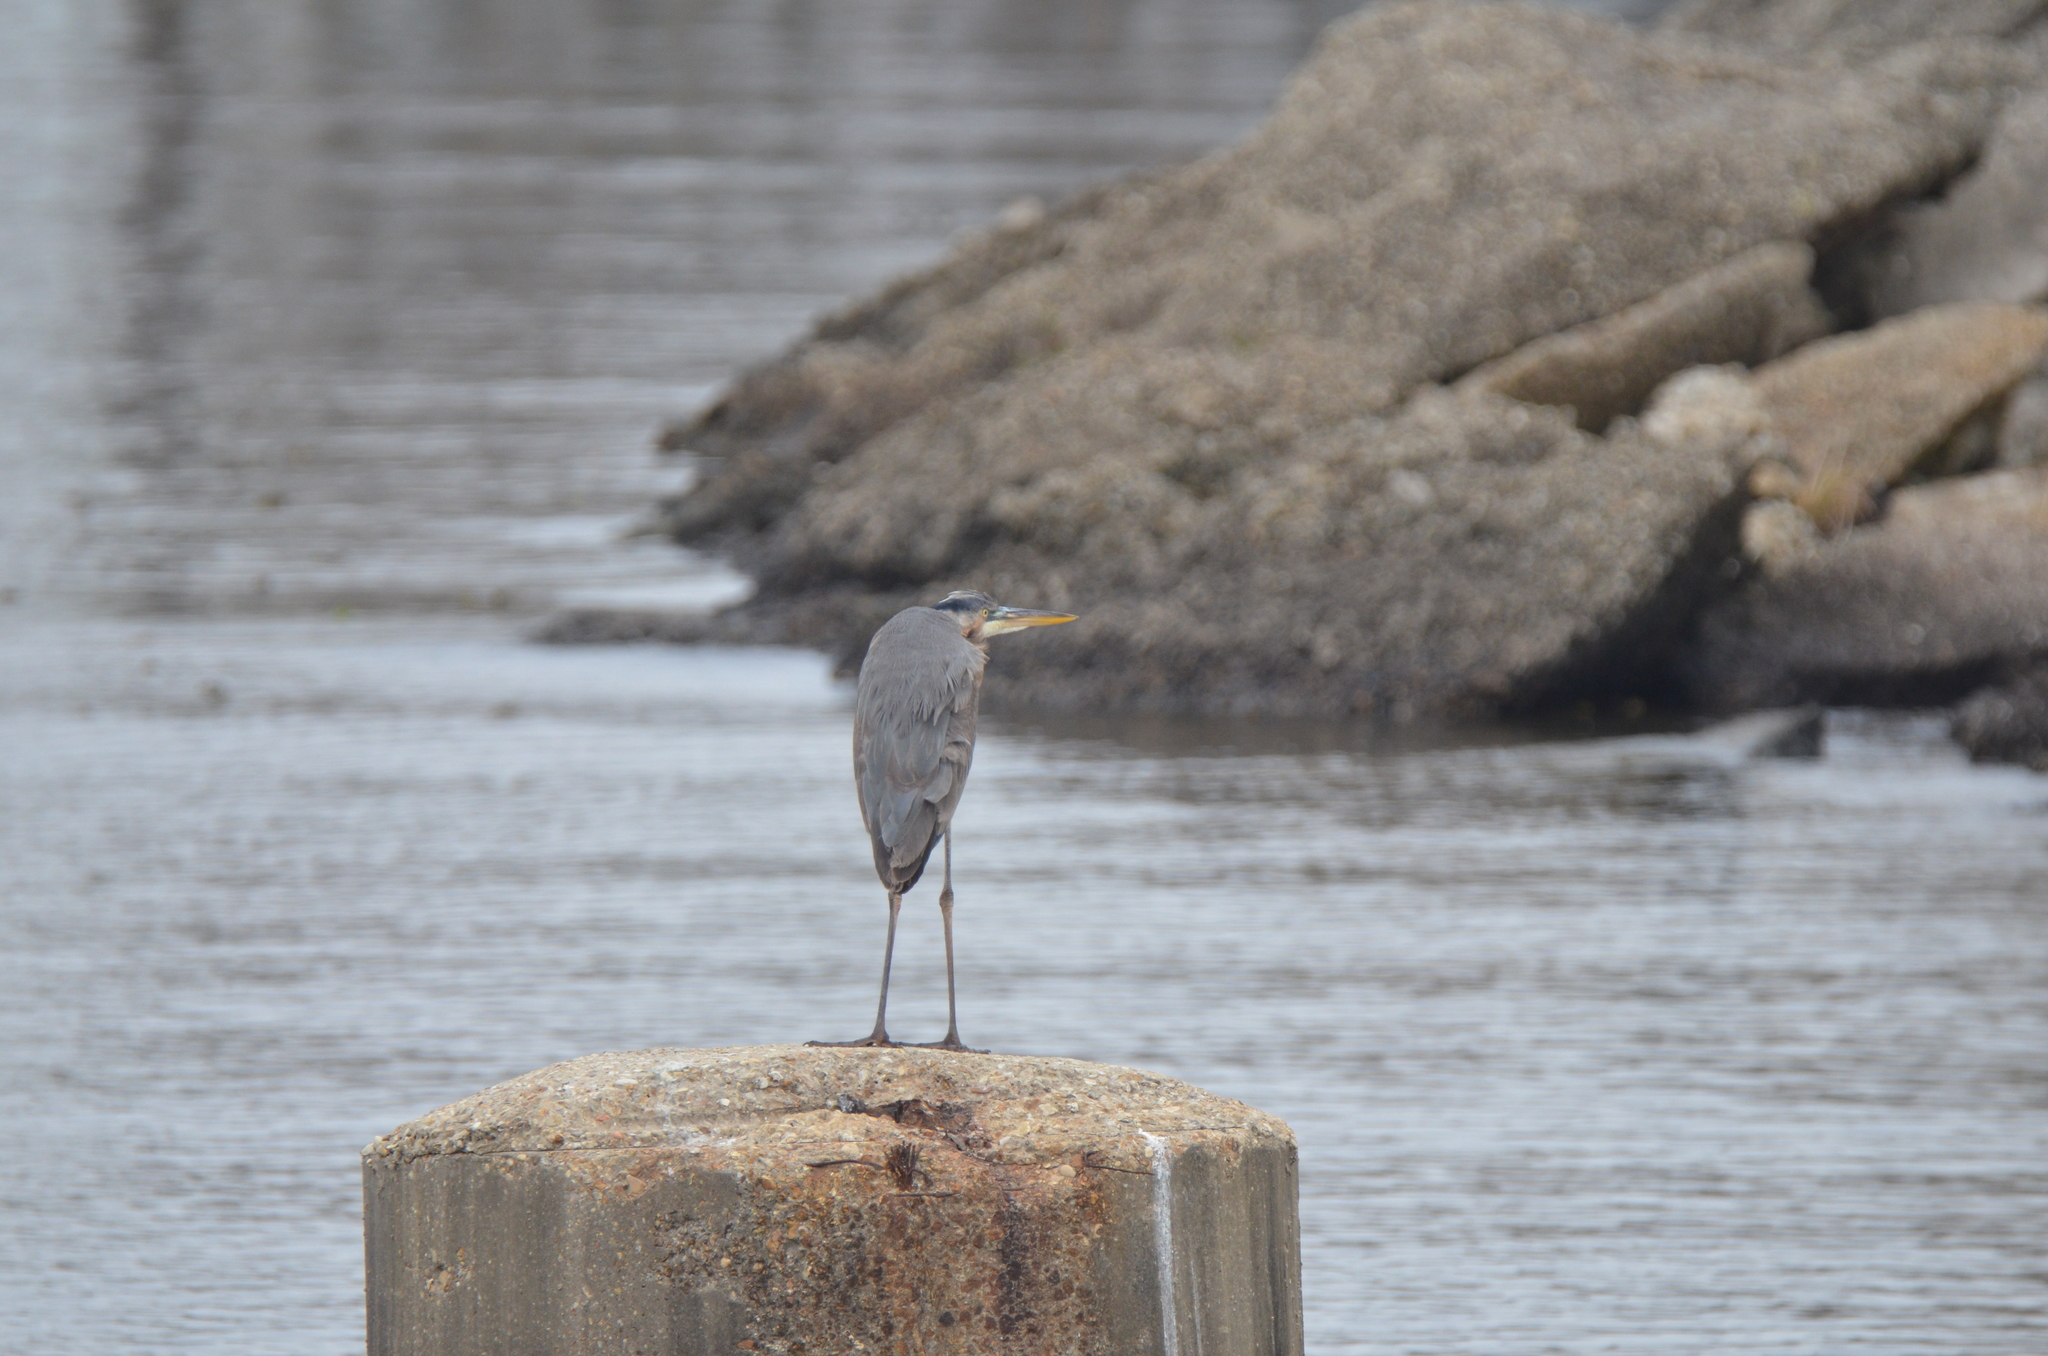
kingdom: Animalia
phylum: Chordata
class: Aves
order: Pelecaniformes
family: Ardeidae
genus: Ardea
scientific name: Ardea herodias
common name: Great blue heron
